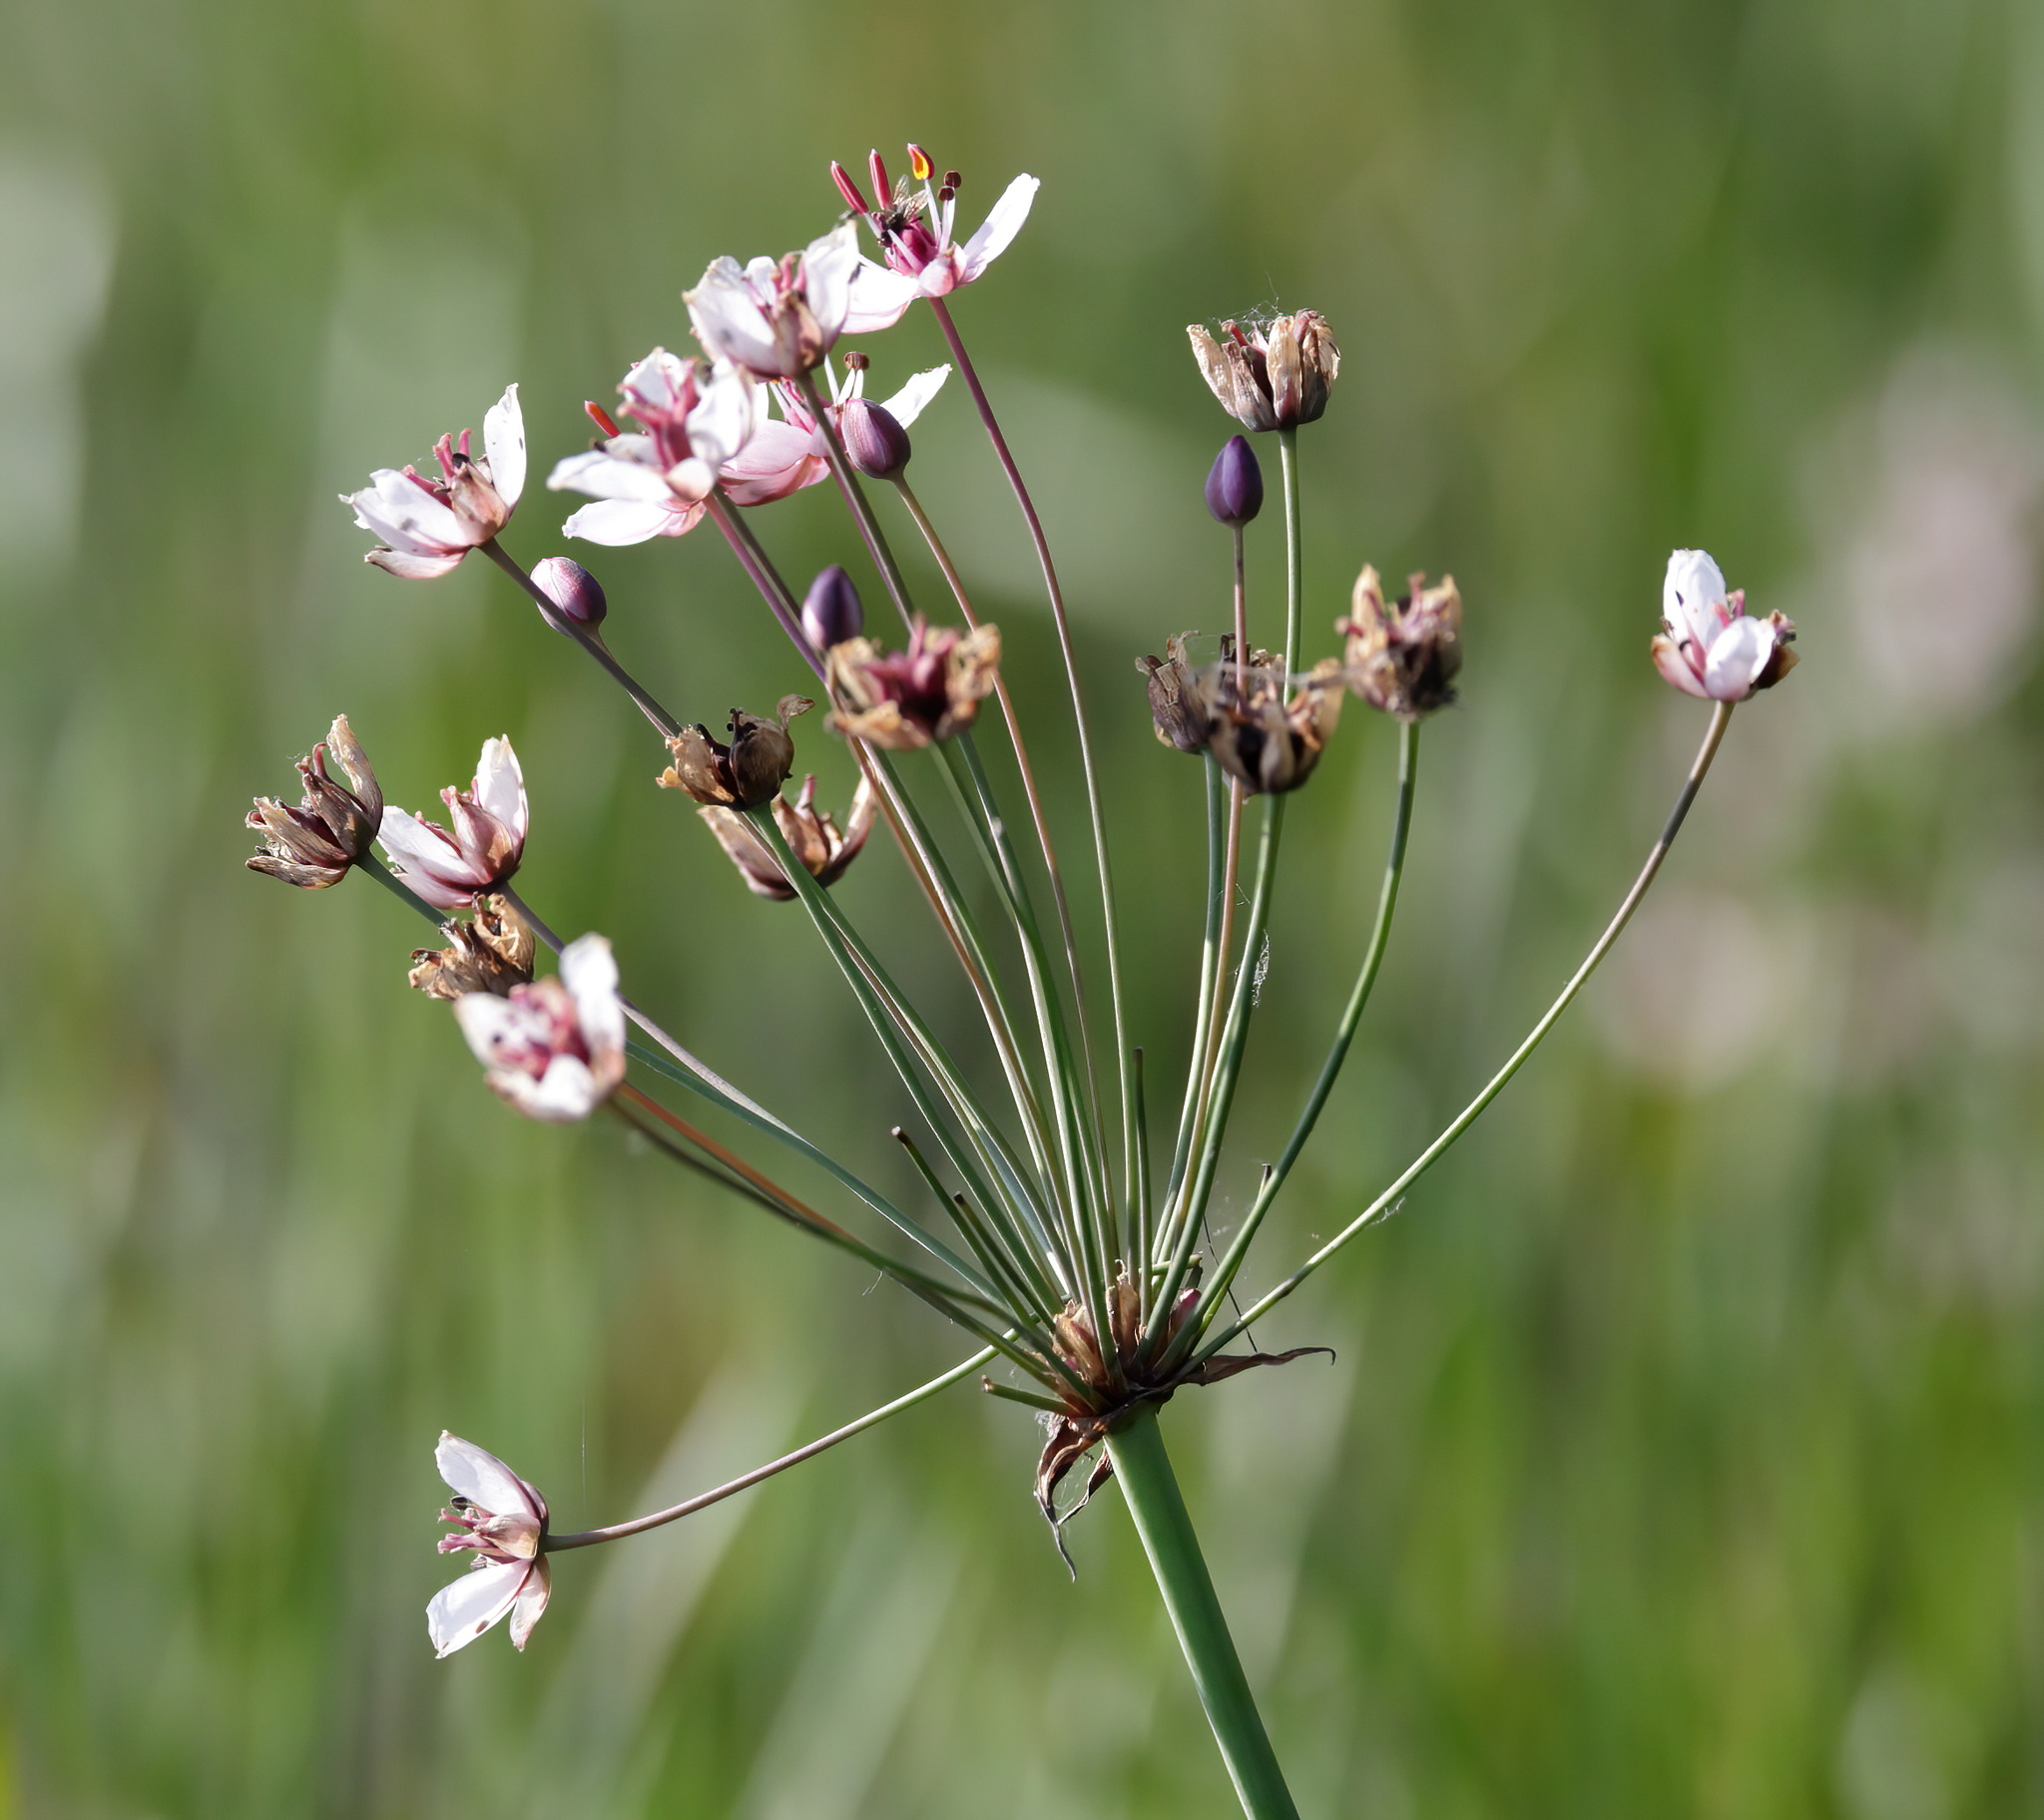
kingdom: Plantae
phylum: Tracheophyta
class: Liliopsida
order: Alismatales
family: Butomaceae
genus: Butomus
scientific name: Butomus umbellatus
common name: Flowering-rush
